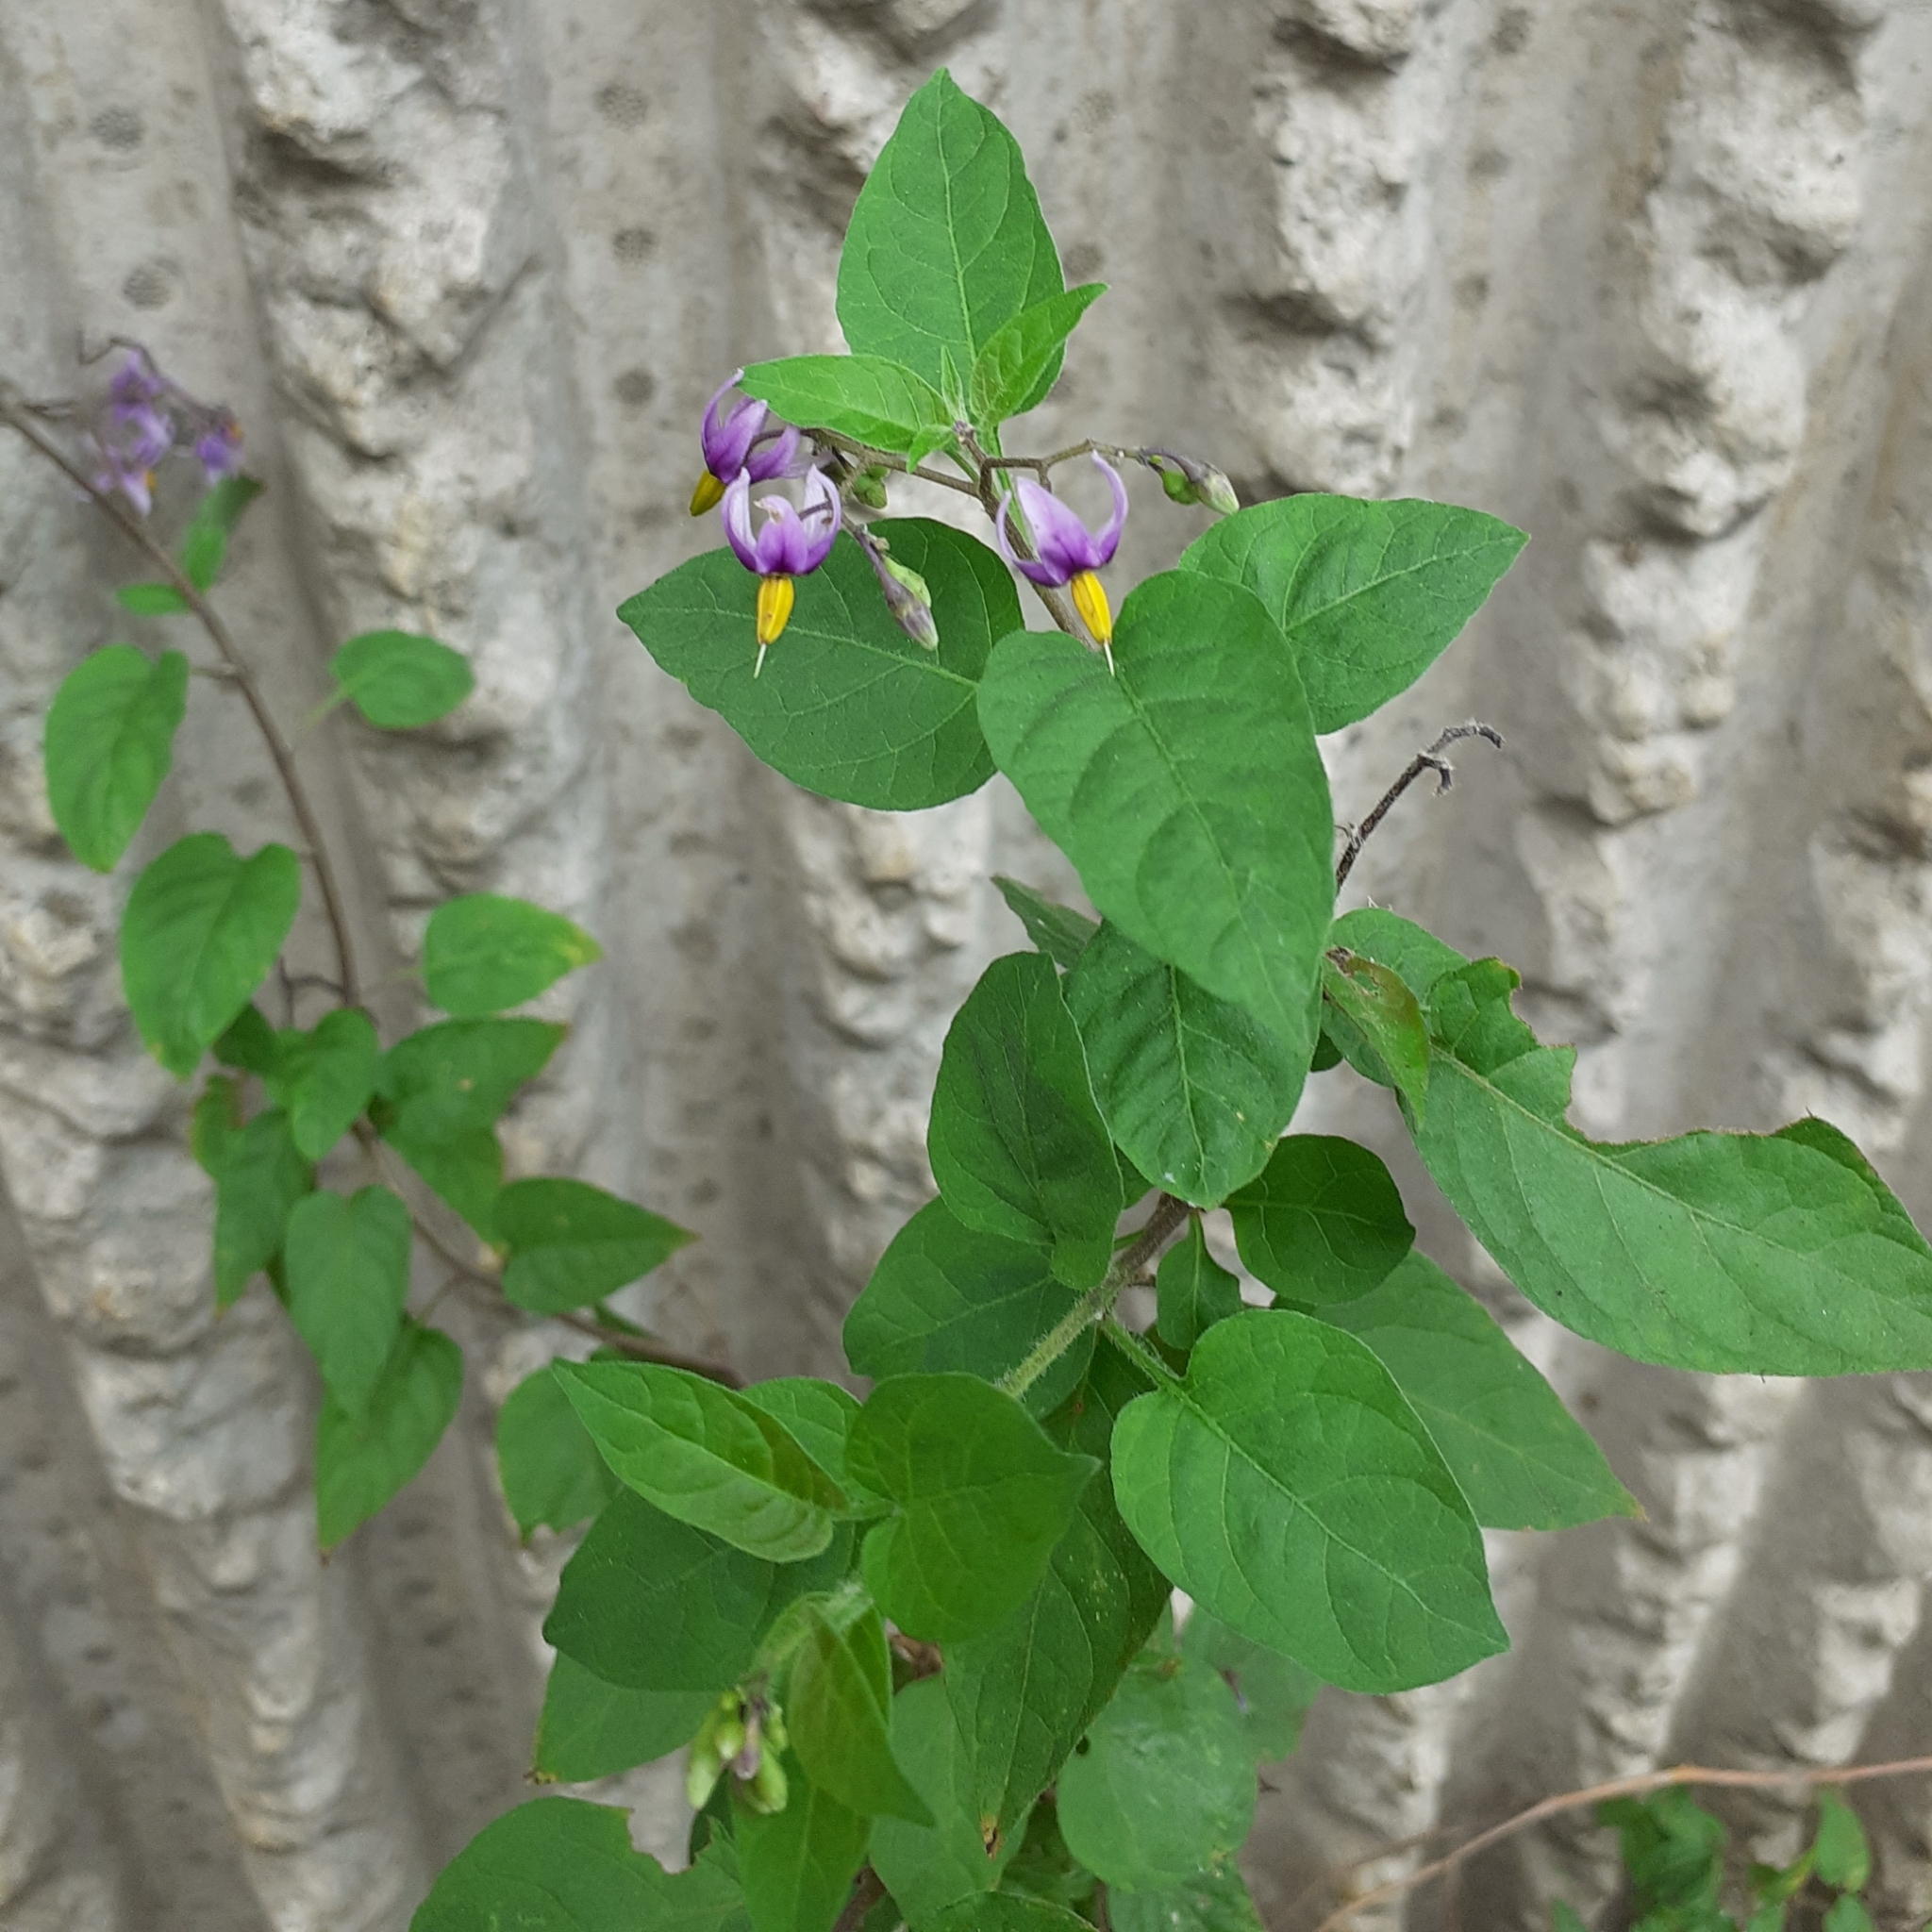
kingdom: Plantae
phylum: Tracheophyta
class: Magnoliopsida
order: Solanales
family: Solanaceae
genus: Solanum
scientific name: Solanum dulcamara
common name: Climbing nightshade
